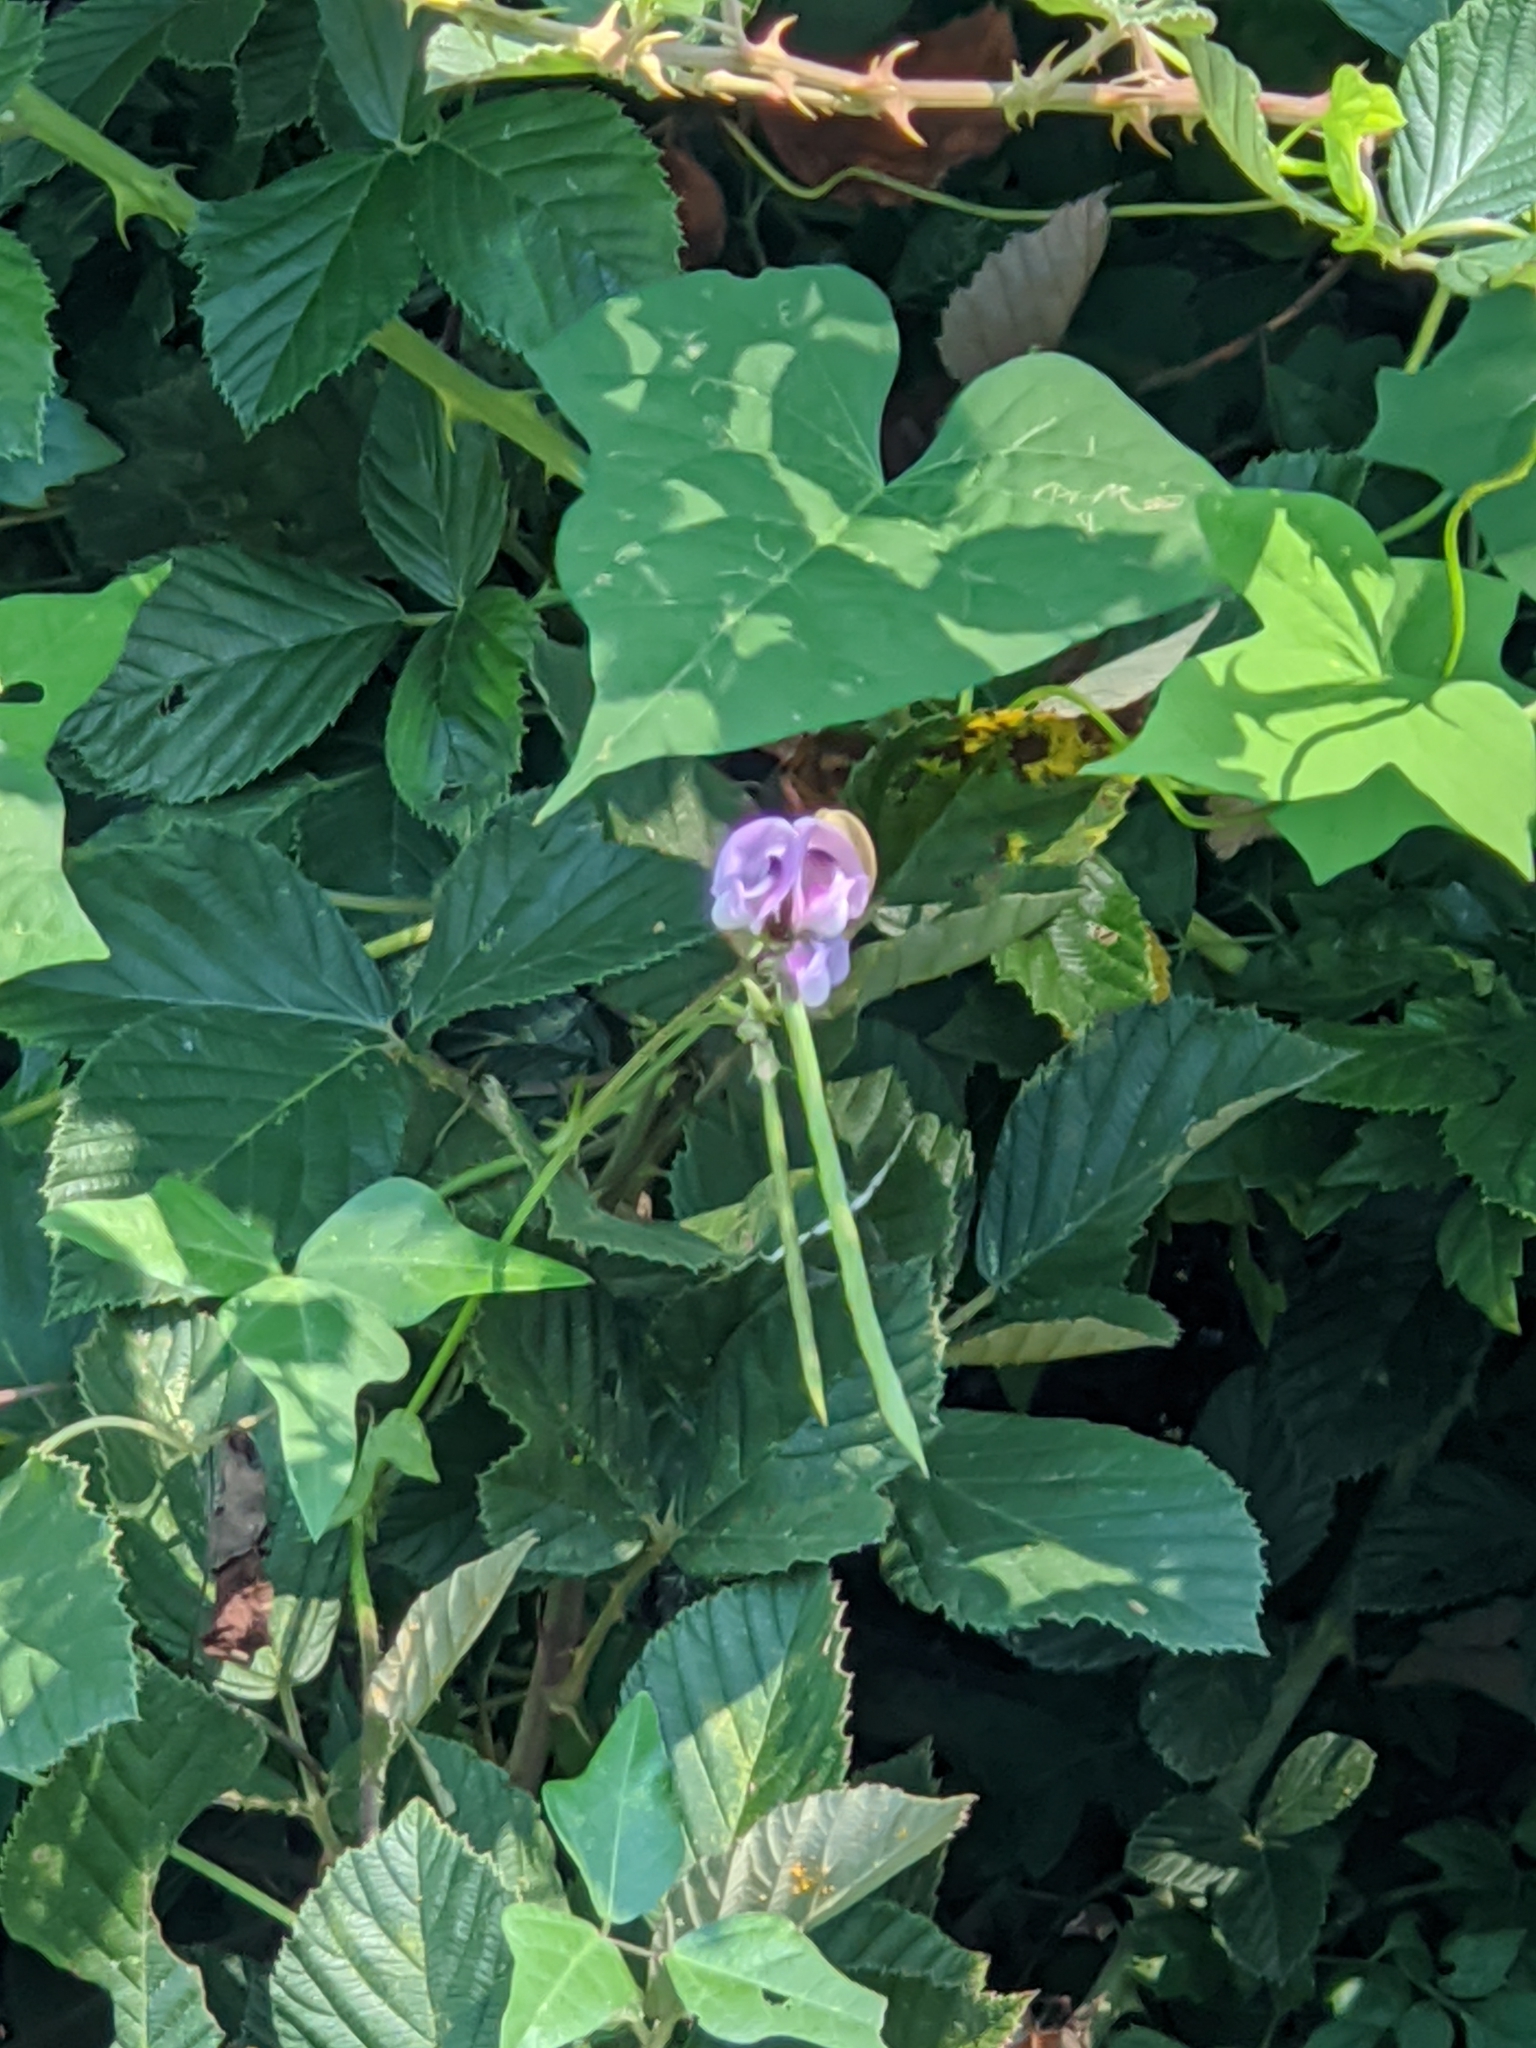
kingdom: Plantae
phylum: Tracheophyta
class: Magnoliopsida
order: Fabales
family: Fabaceae
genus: Strophostyles
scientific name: Strophostyles helvola
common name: Trailing wild bean
